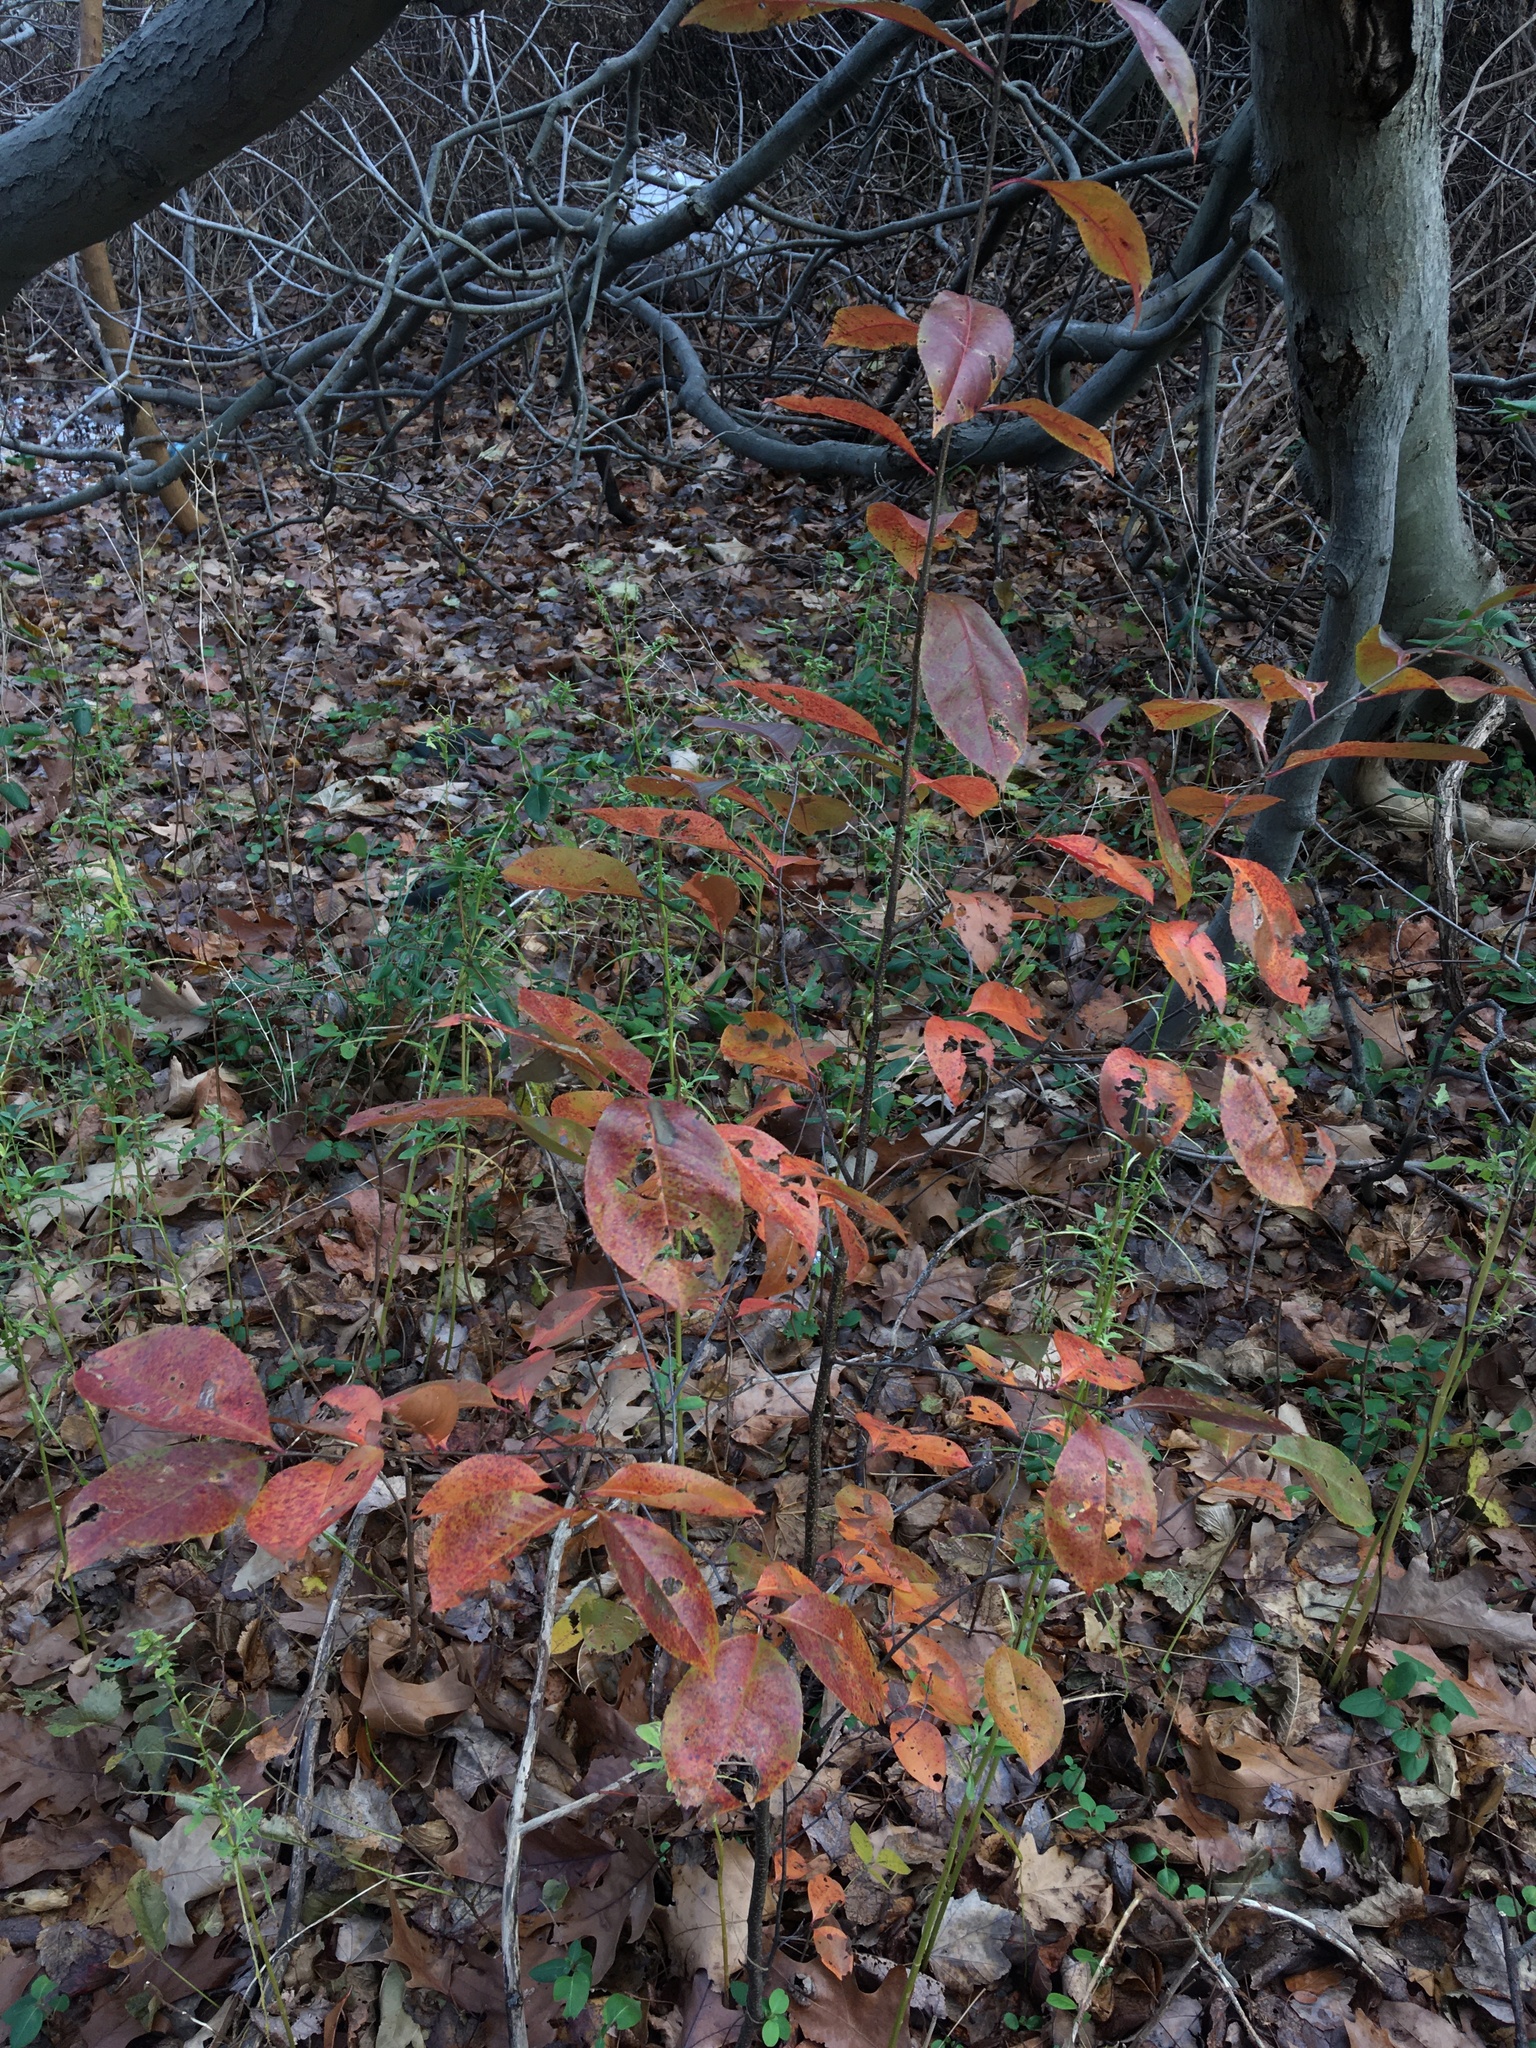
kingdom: Plantae
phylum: Tracheophyta
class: Magnoliopsida
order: Rosales
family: Rosaceae
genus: Prunus
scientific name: Prunus serotina
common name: Black cherry
